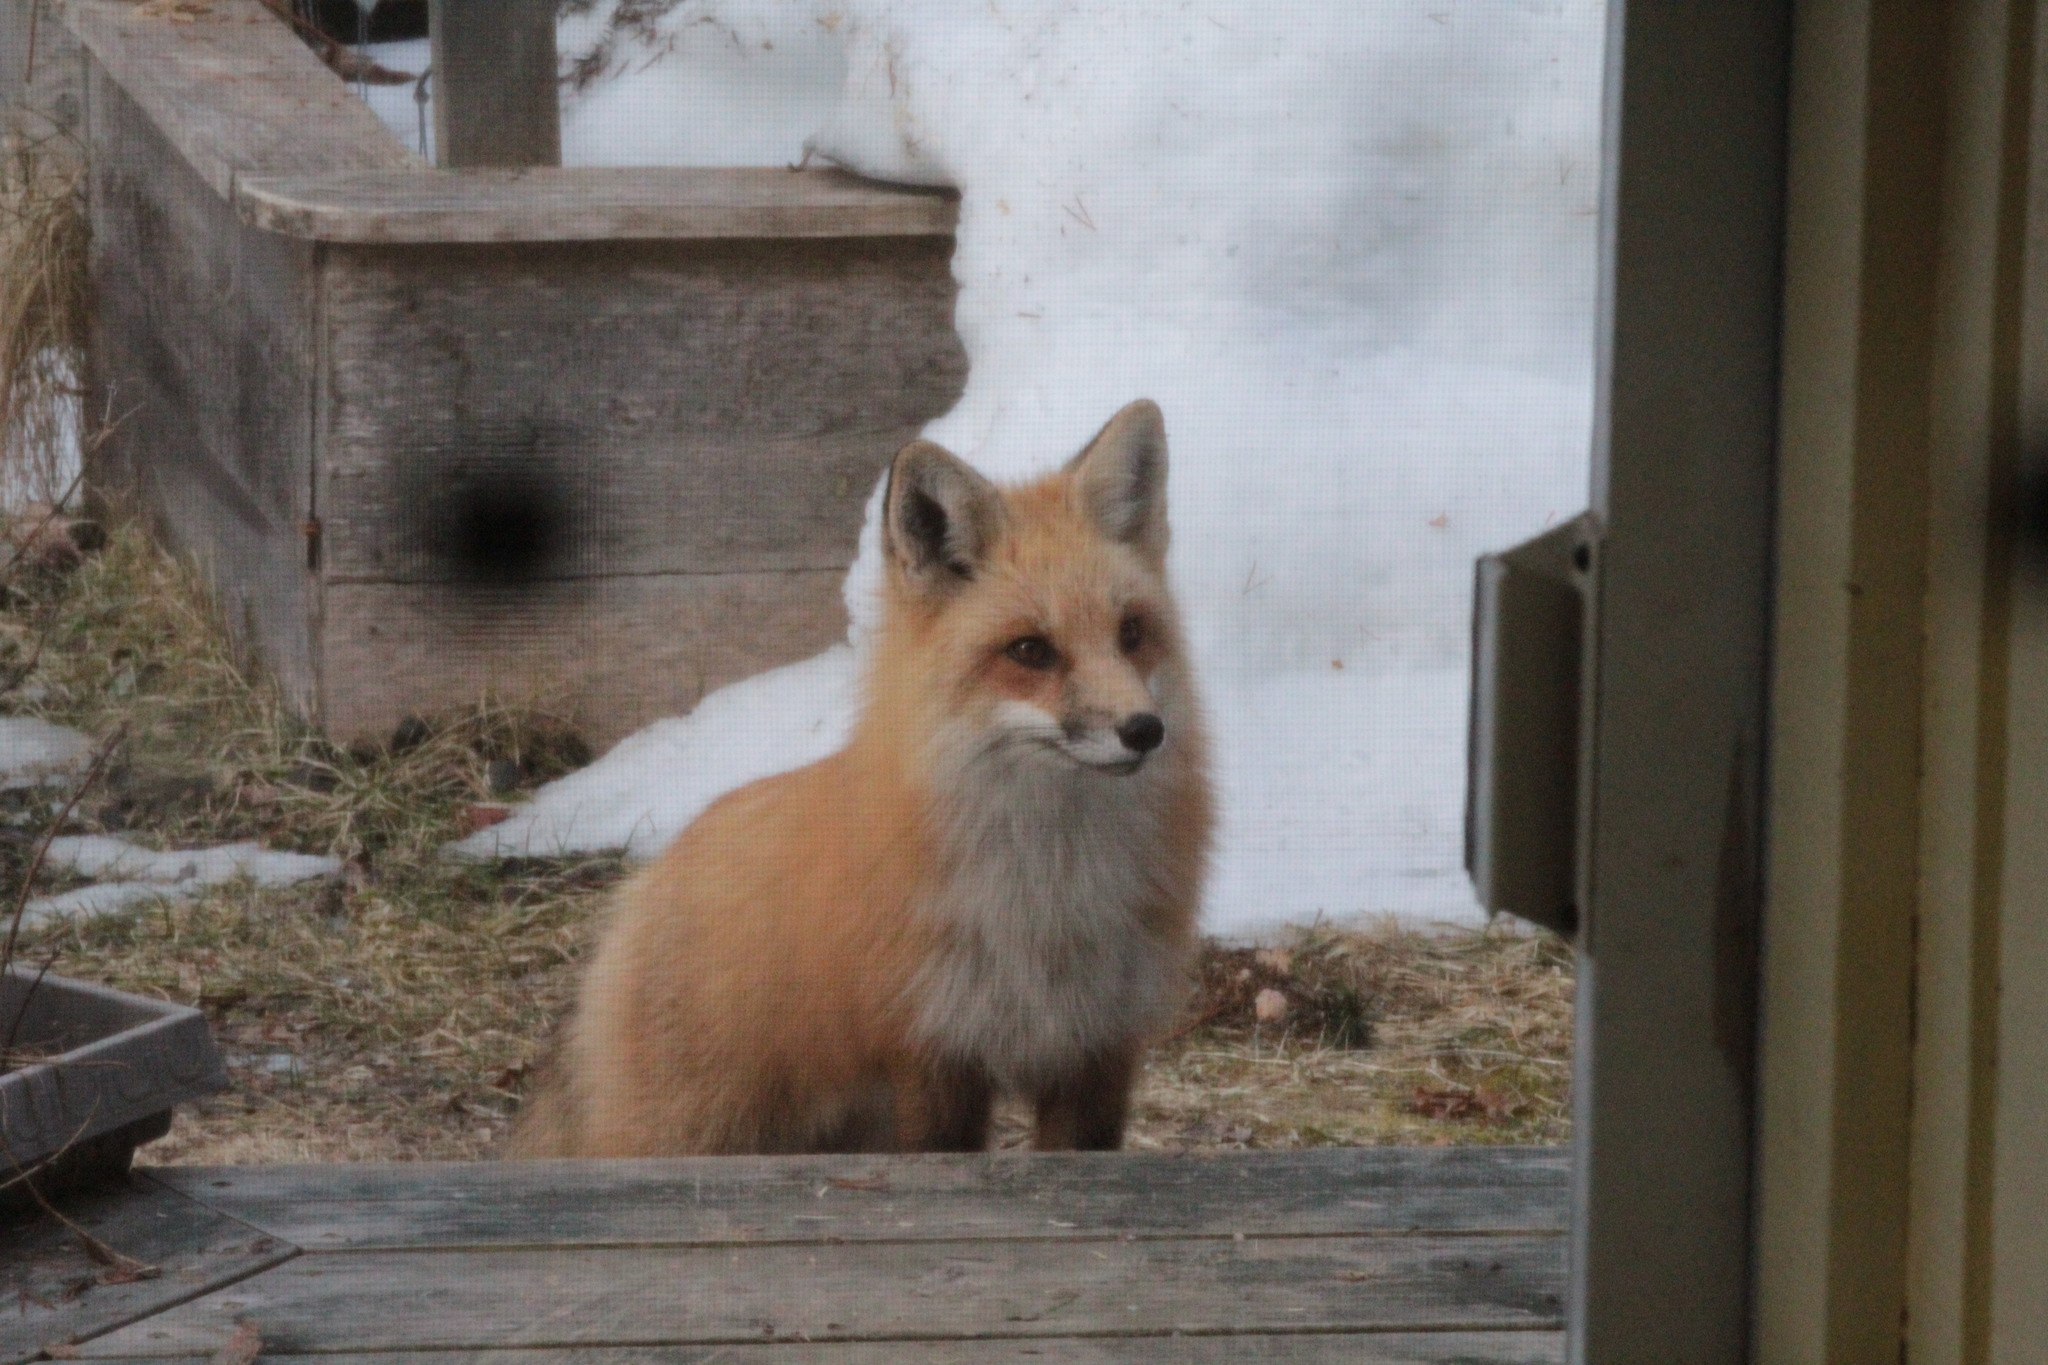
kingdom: Animalia
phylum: Chordata
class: Mammalia
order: Carnivora
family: Canidae
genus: Vulpes
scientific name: Vulpes vulpes
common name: Red fox
